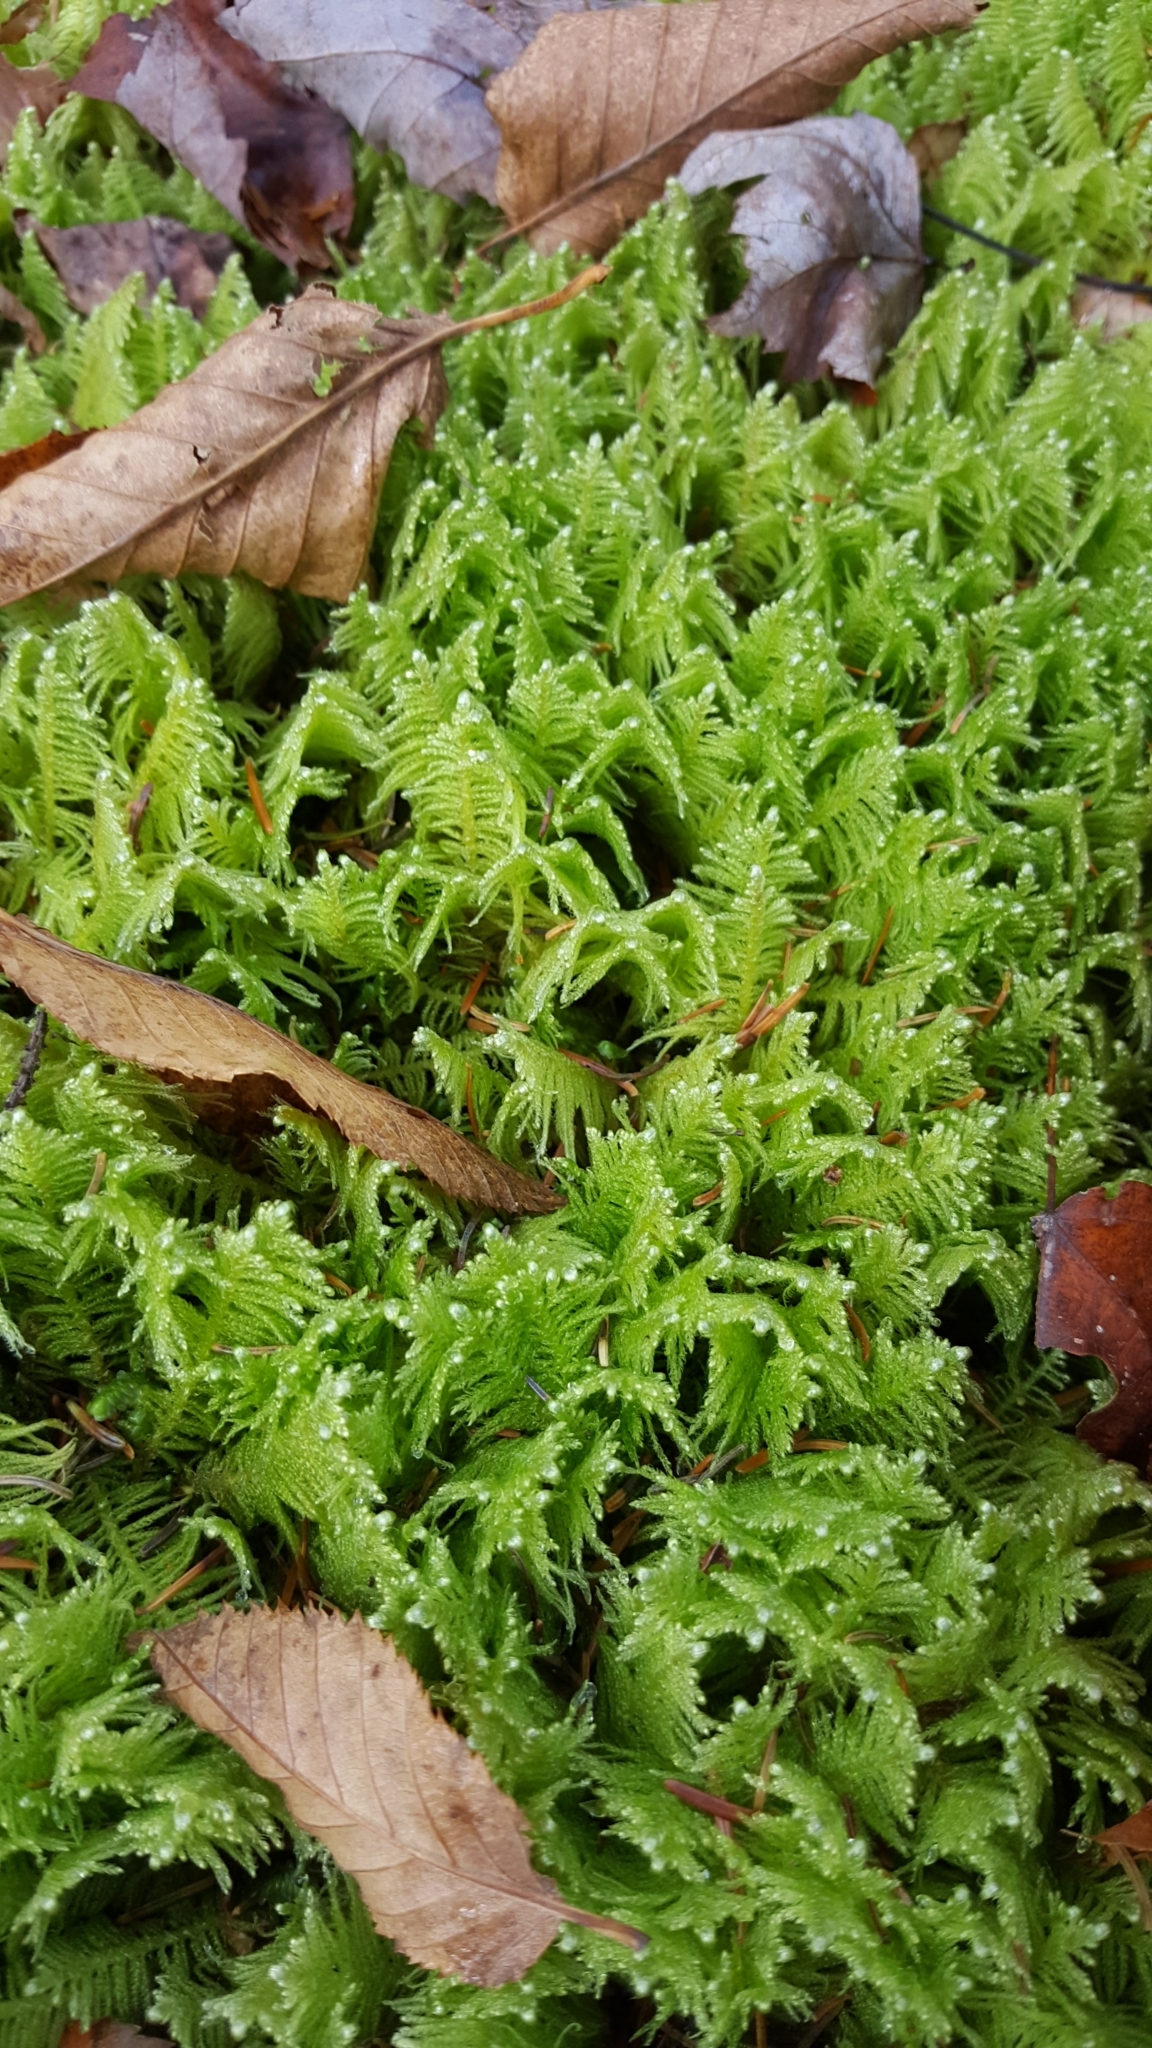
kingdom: Plantae
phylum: Bryophyta
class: Bryopsida
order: Hypnales
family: Pylaisiaceae
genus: Ptilium
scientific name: Ptilium crista-castrensis
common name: Knight's plume moss
